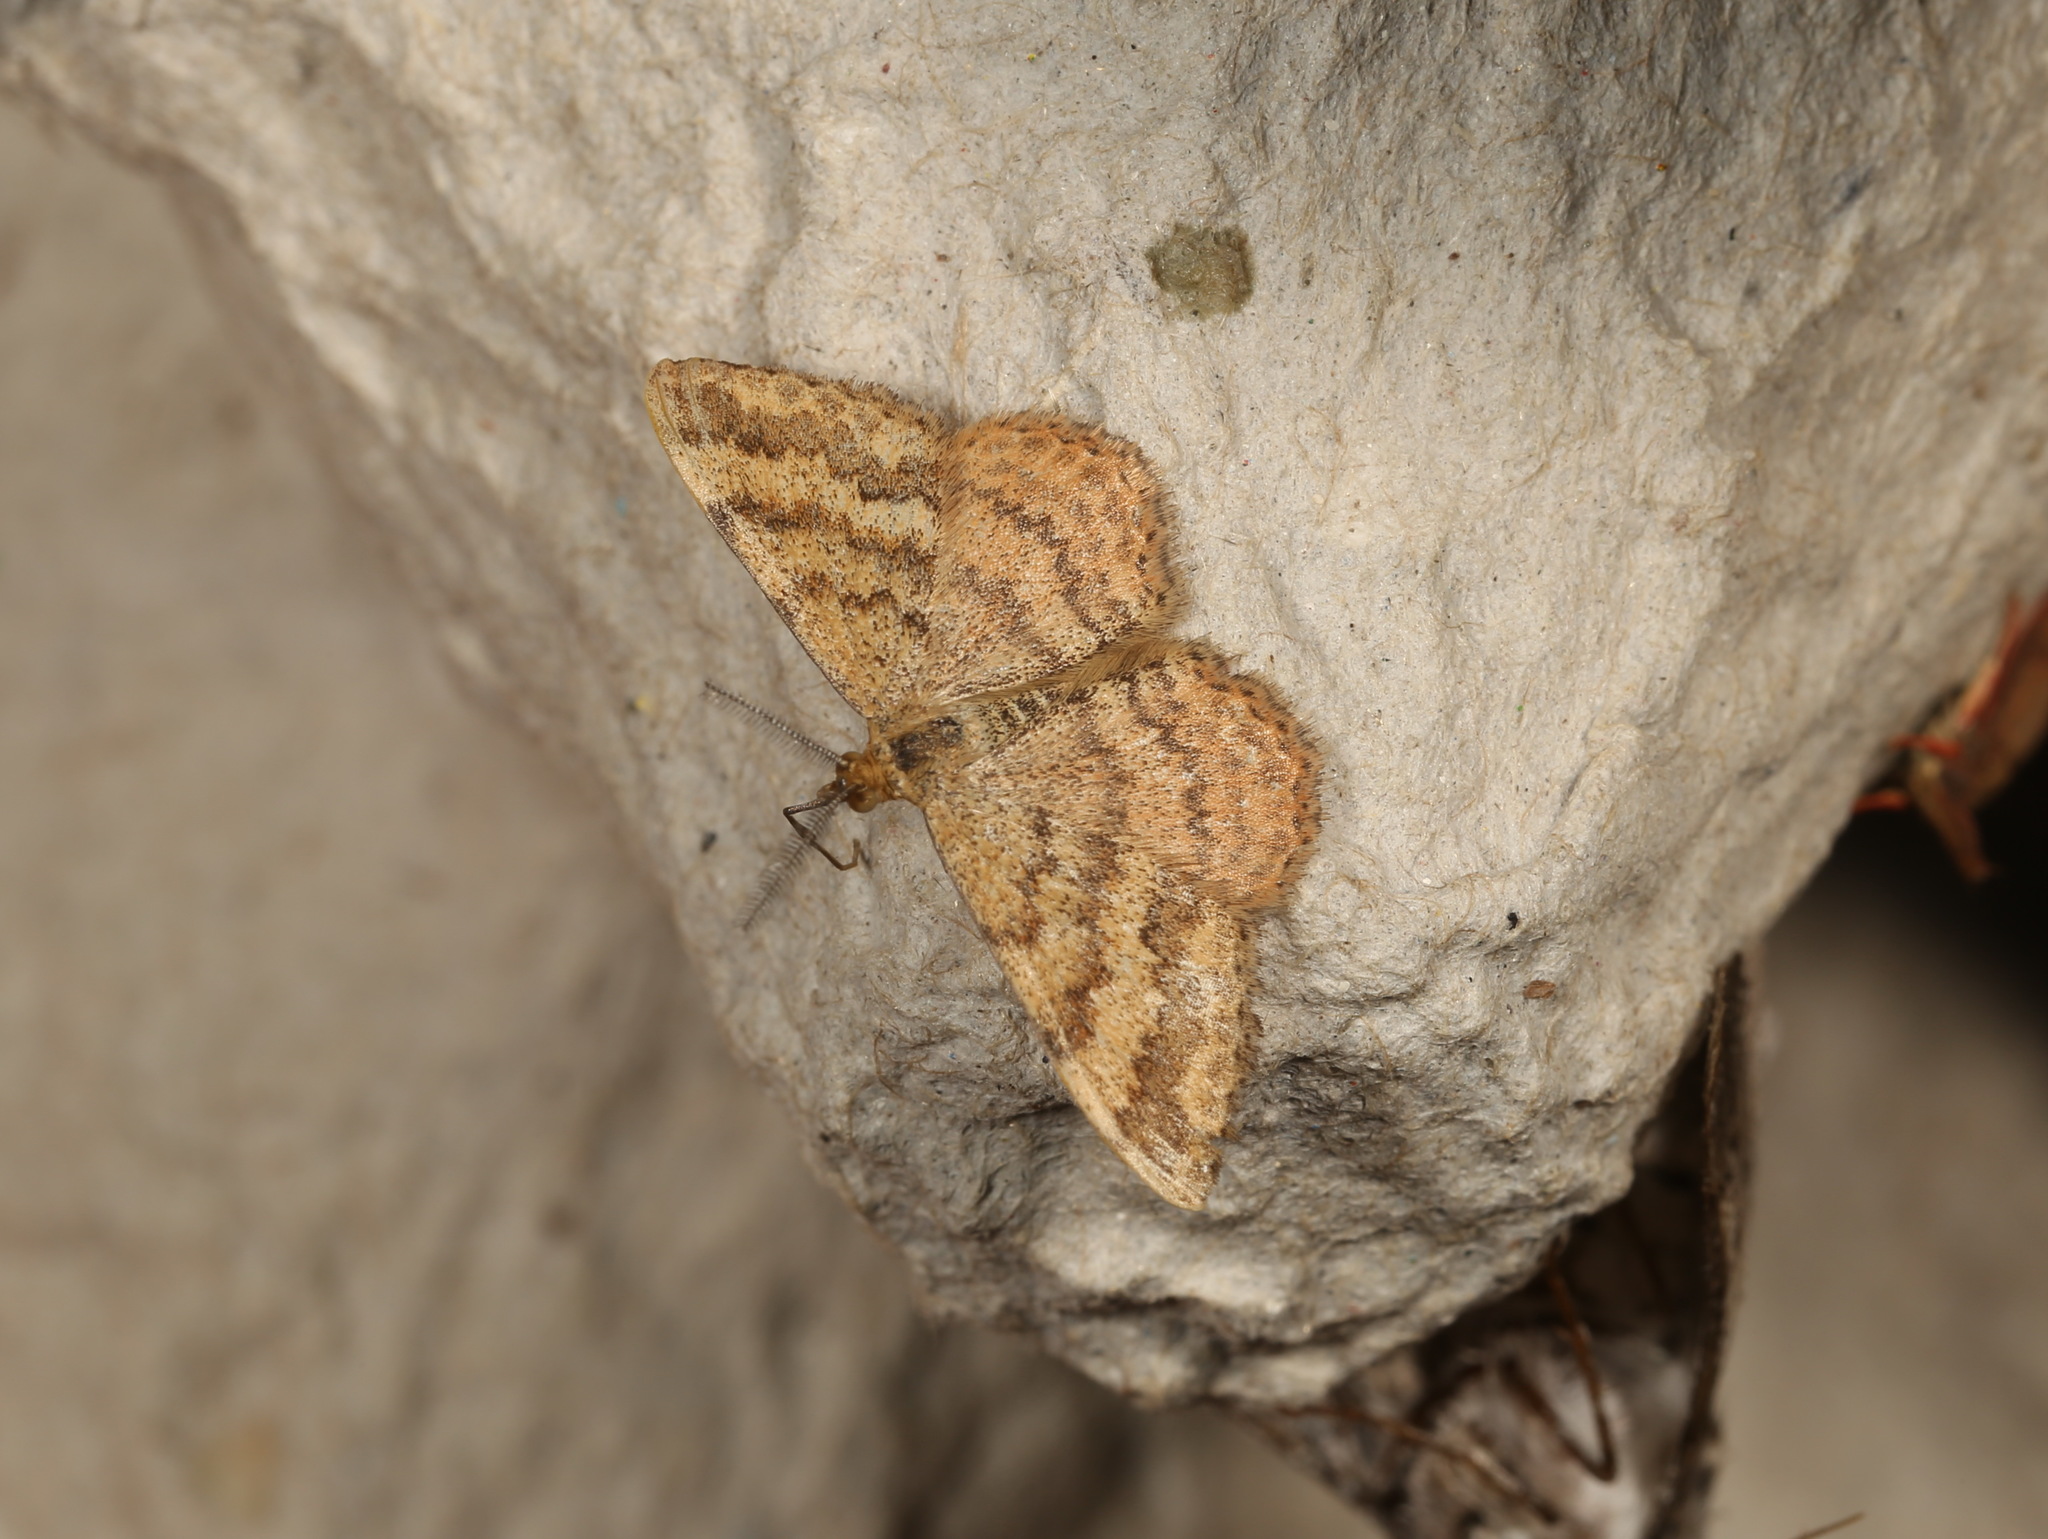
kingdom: Animalia
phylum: Arthropoda
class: Insecta
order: Lepidoptera
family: Geometridae
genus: Scopula
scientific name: Scopula rubraria
